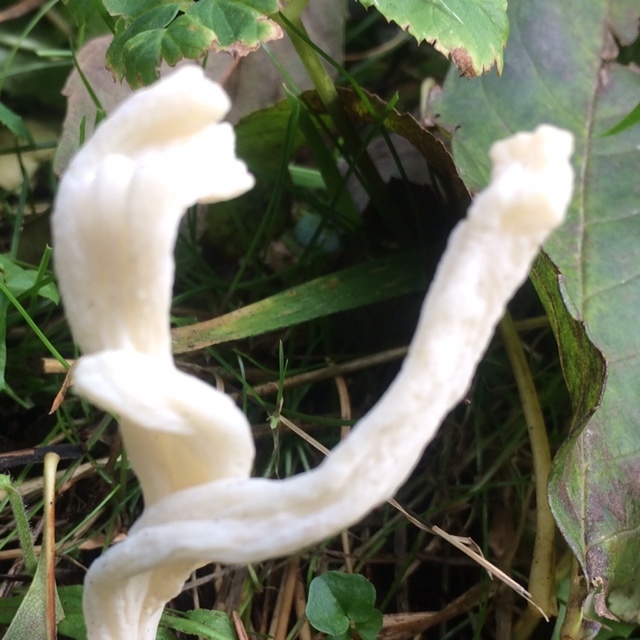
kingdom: Fungi
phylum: Basidiomycota
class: Agaricomycetes
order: Cantharellales
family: Hydnaceae
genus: Clavulina
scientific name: Clavulina rugosa
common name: Wrinkled club
